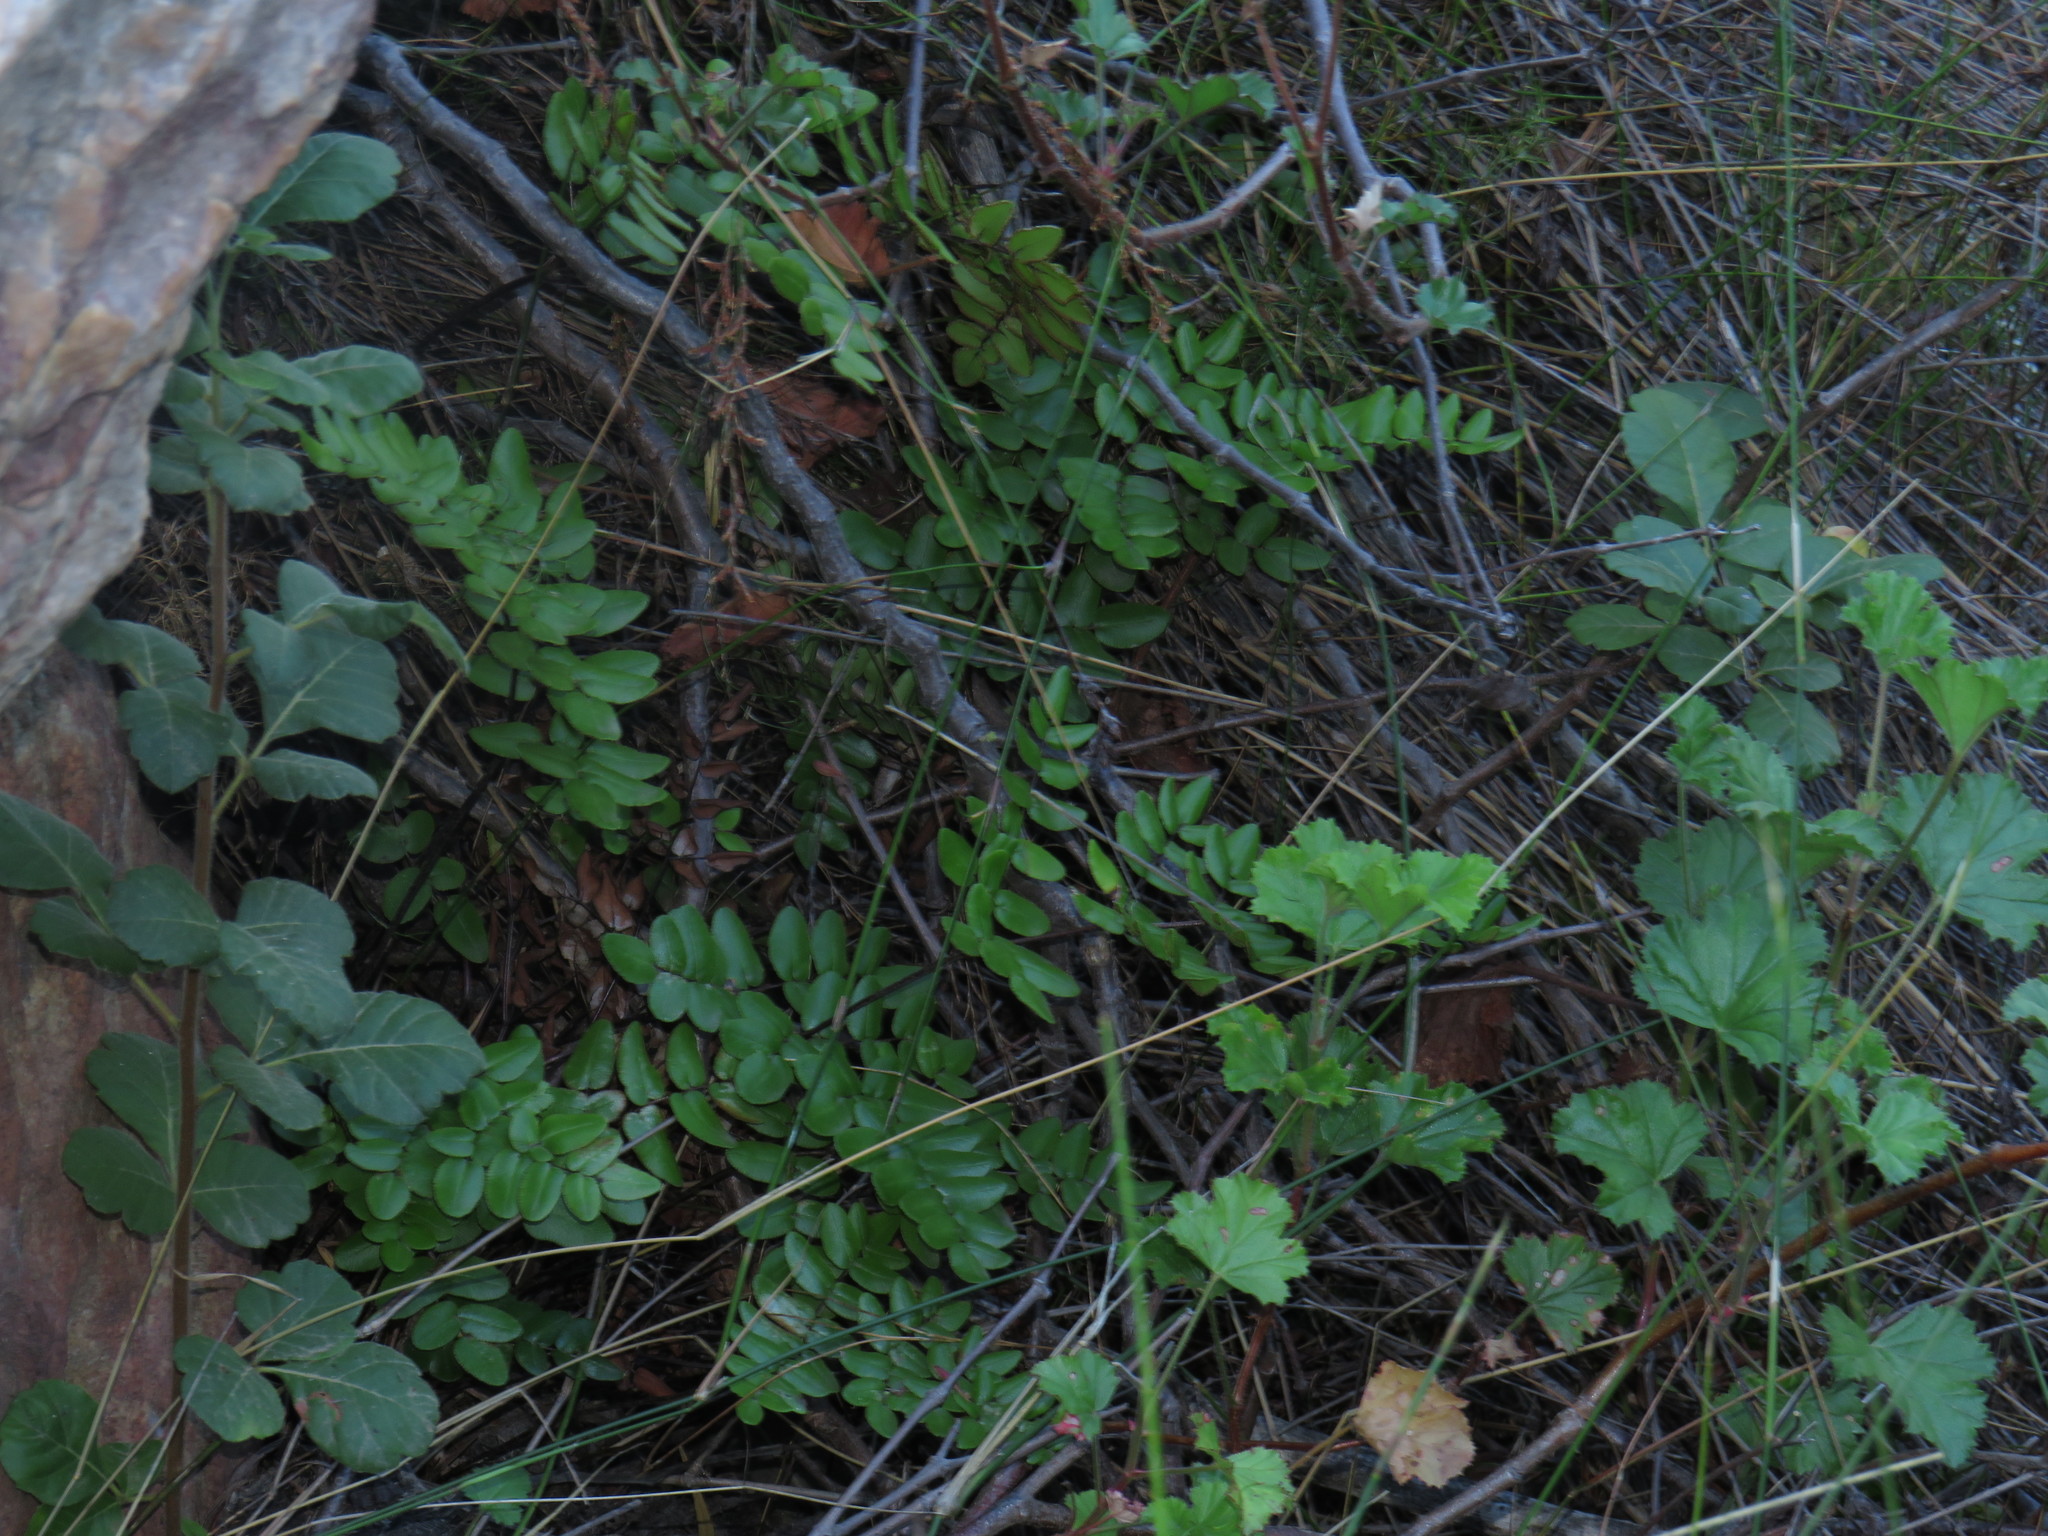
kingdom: Plantae
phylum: Tracheophyta
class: Polypodiopsida
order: Polypodiales
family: Pteridaceae
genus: Pellaea
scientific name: Pellaea pteroides
